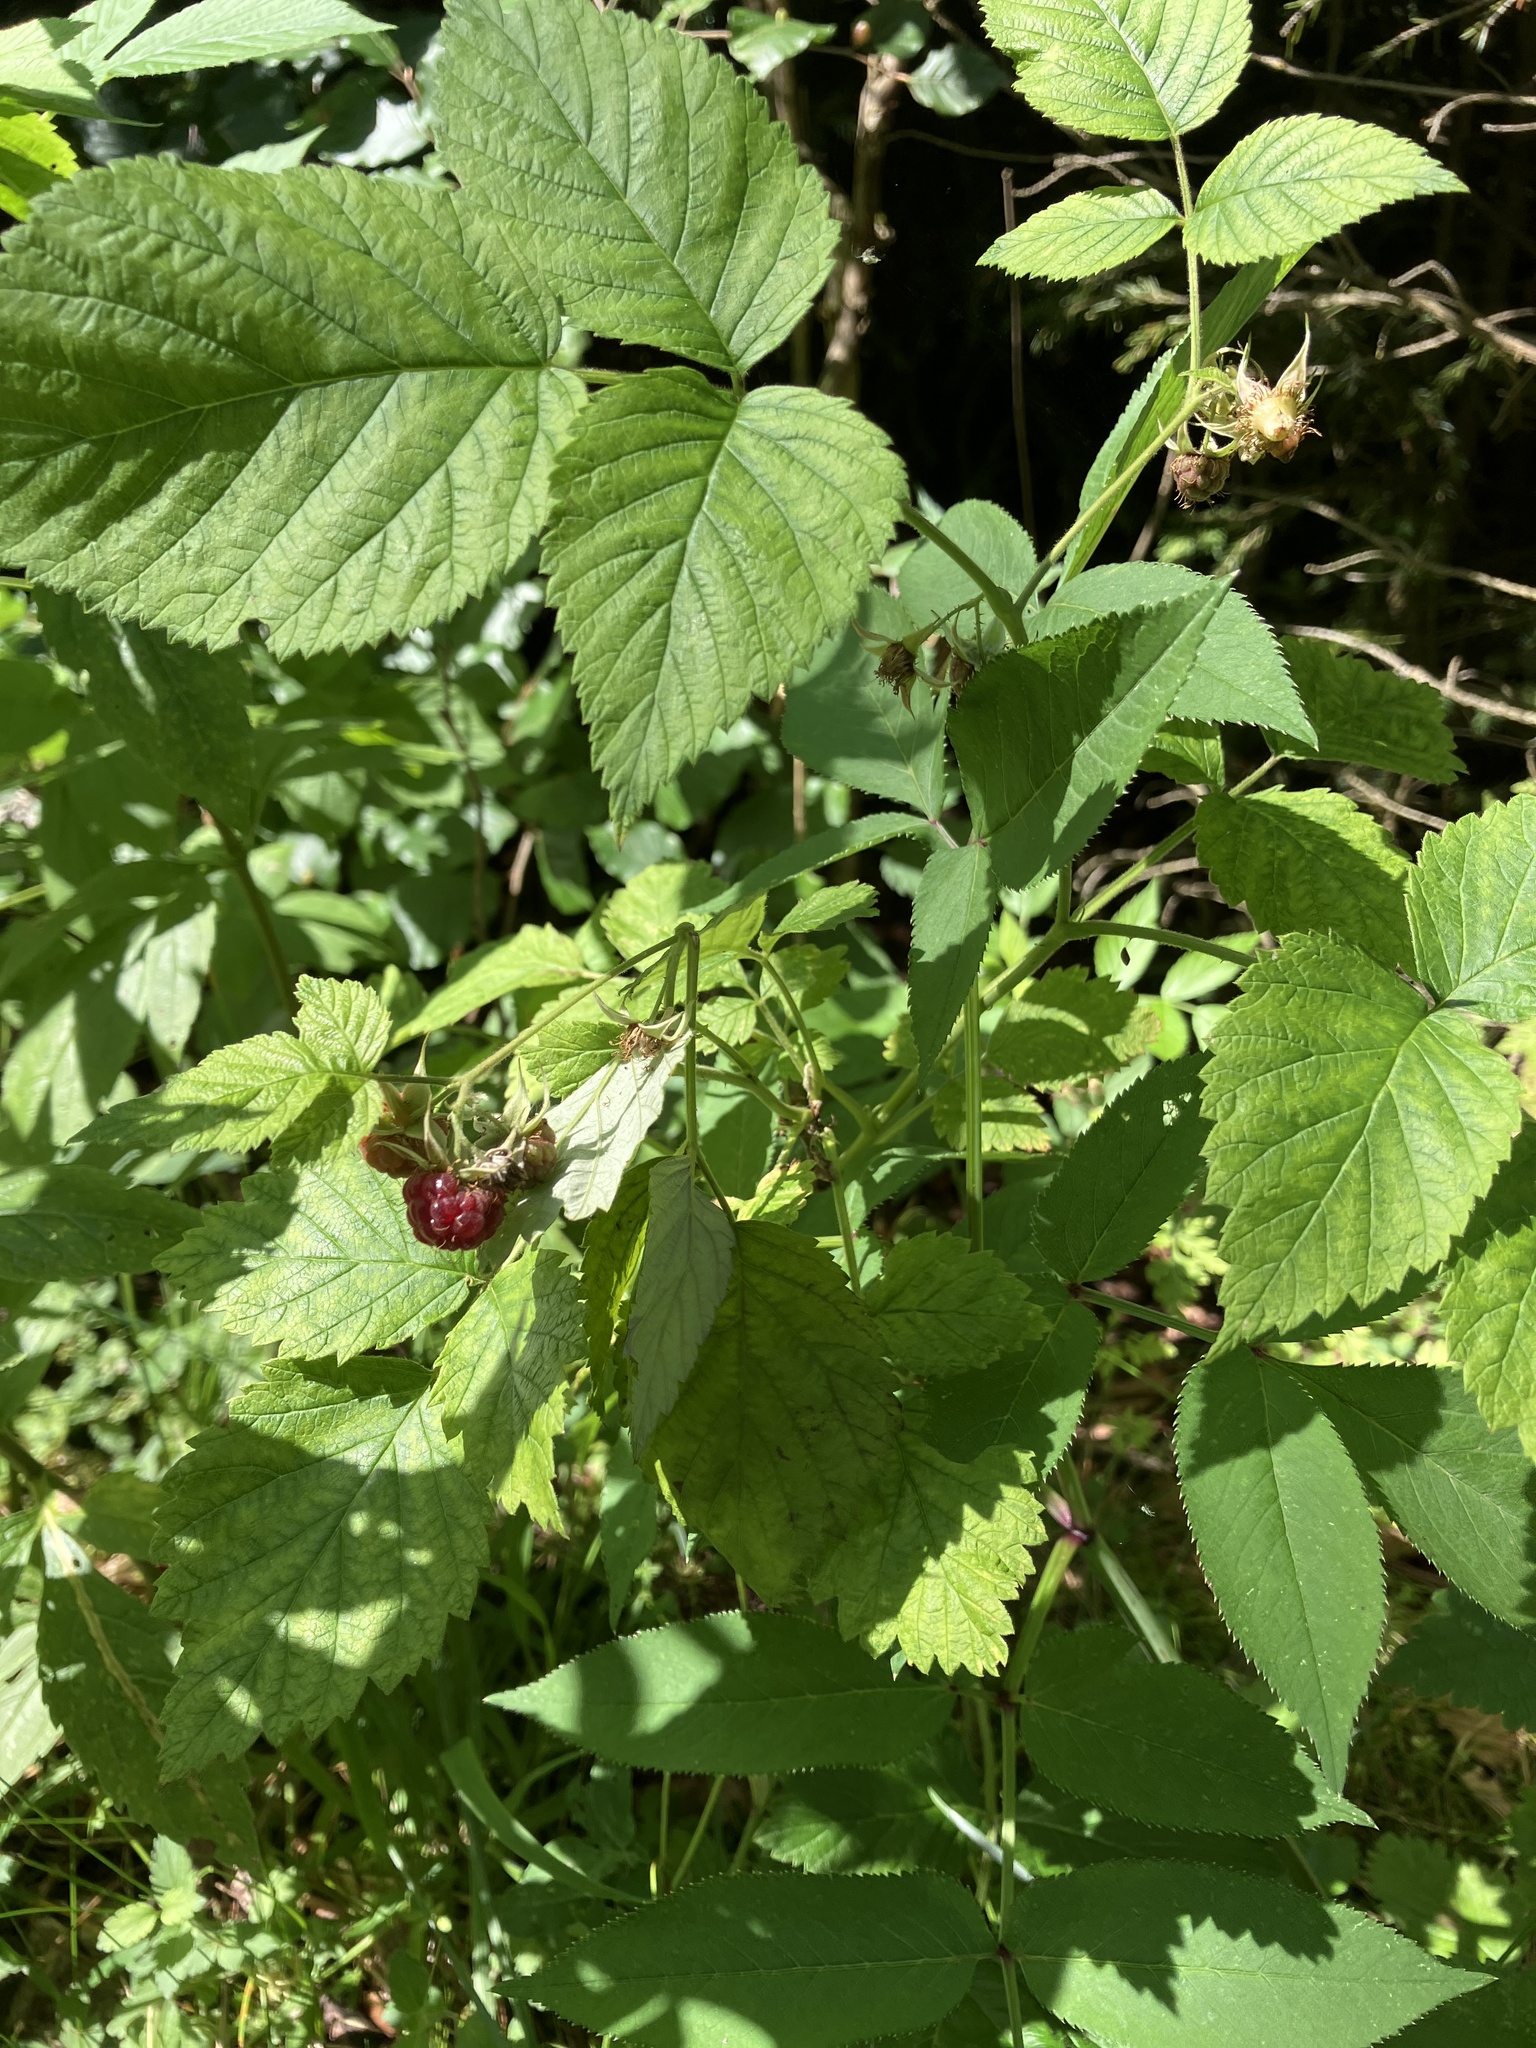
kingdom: Plantae
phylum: Tracheophyta
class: Magnoliopsida
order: Rosales
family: Rosaceae
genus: Rubus
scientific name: Rubus idaeus
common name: Raspberry
